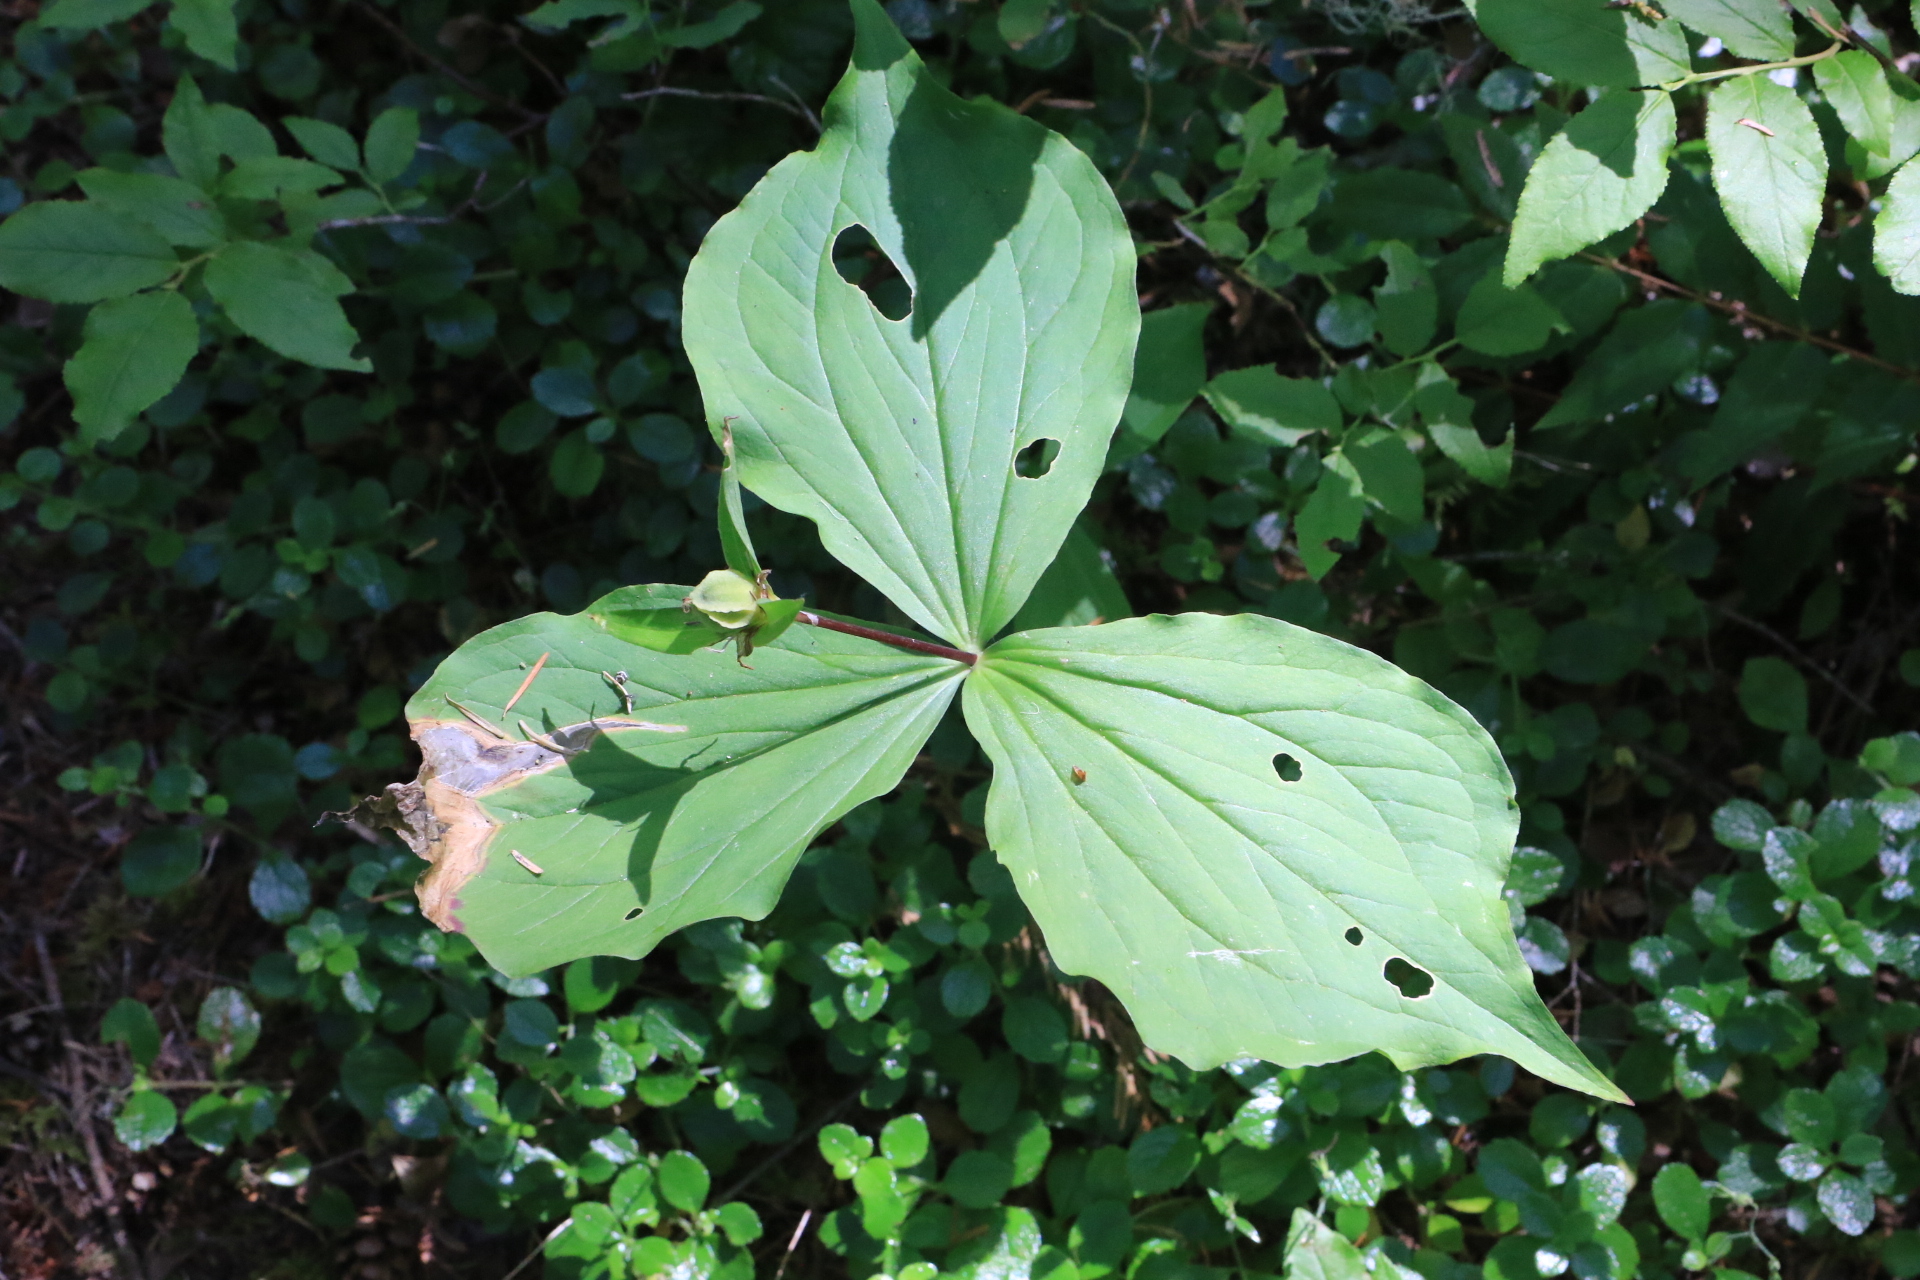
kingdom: Plantae
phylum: Tracheophyta
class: Liliopsida
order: Liliales
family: Melanthiaceae
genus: Trillium
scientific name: Trillium ovatum
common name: Pacific trillium
